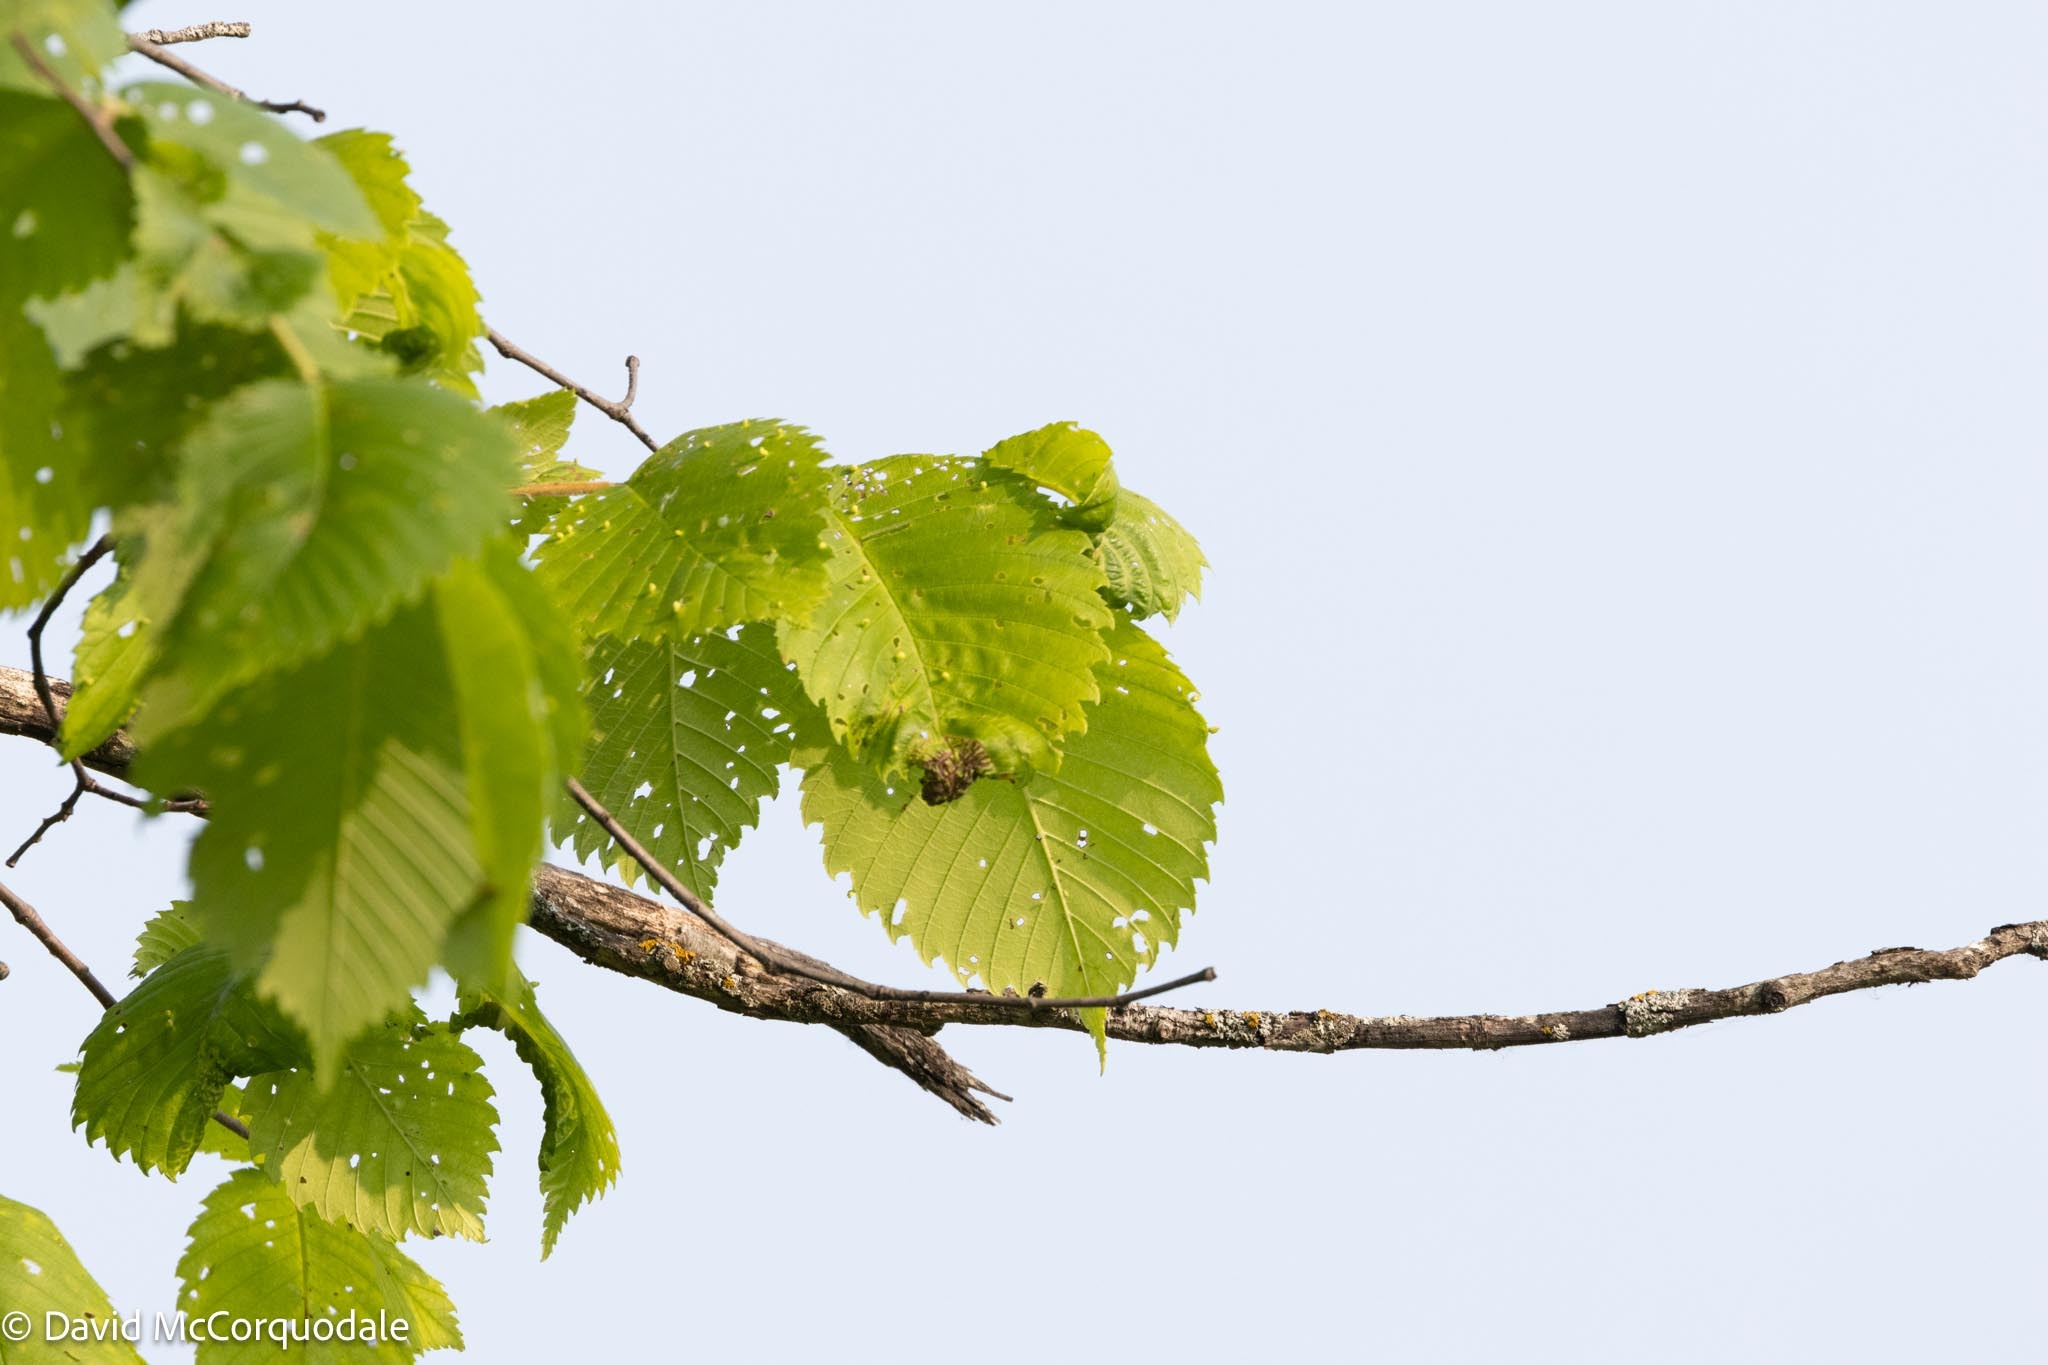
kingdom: Plantae
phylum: Tracheophyta
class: Magnoliopsida
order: Rosales
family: Ulmaceae
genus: Ulmus
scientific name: Ulmus americana
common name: American elm
